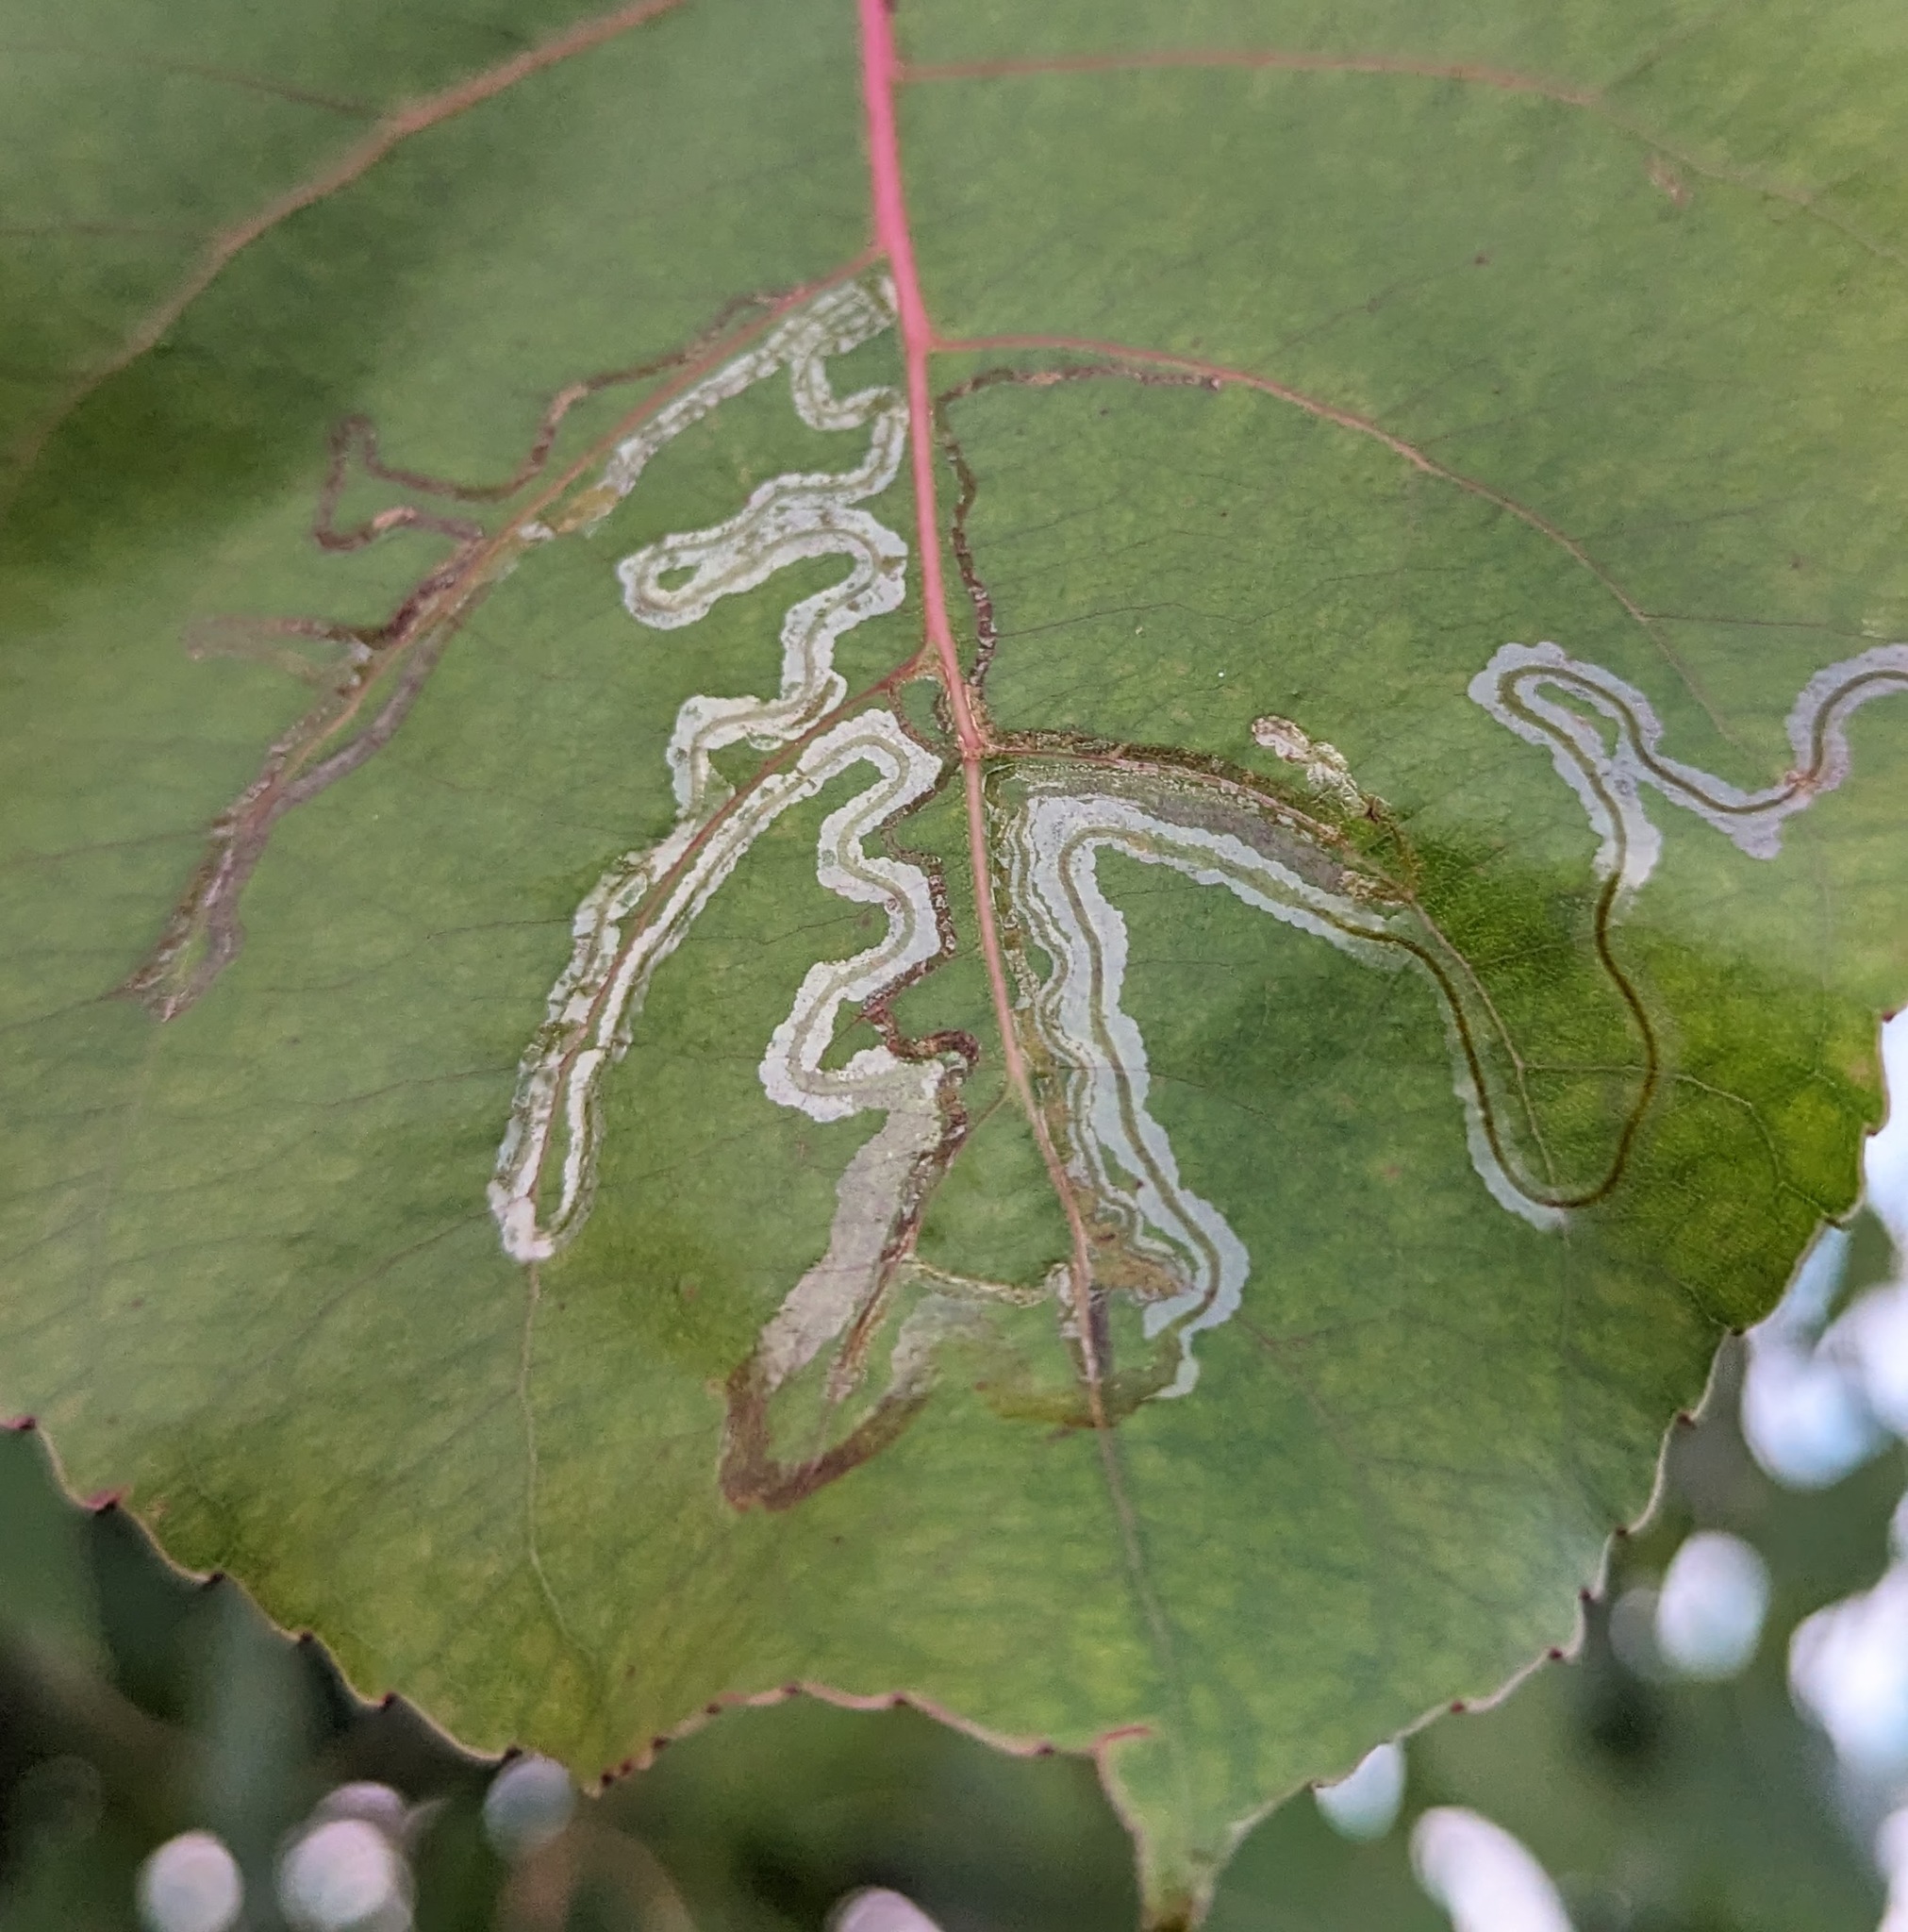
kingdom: Animalia
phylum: Arthropoda
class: Insecta
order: Lepidoptera
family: Gracillariidae
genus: Phyllocnistis
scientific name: Phyllocnistis populiella
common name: Aspen serpentine leafminer moth
